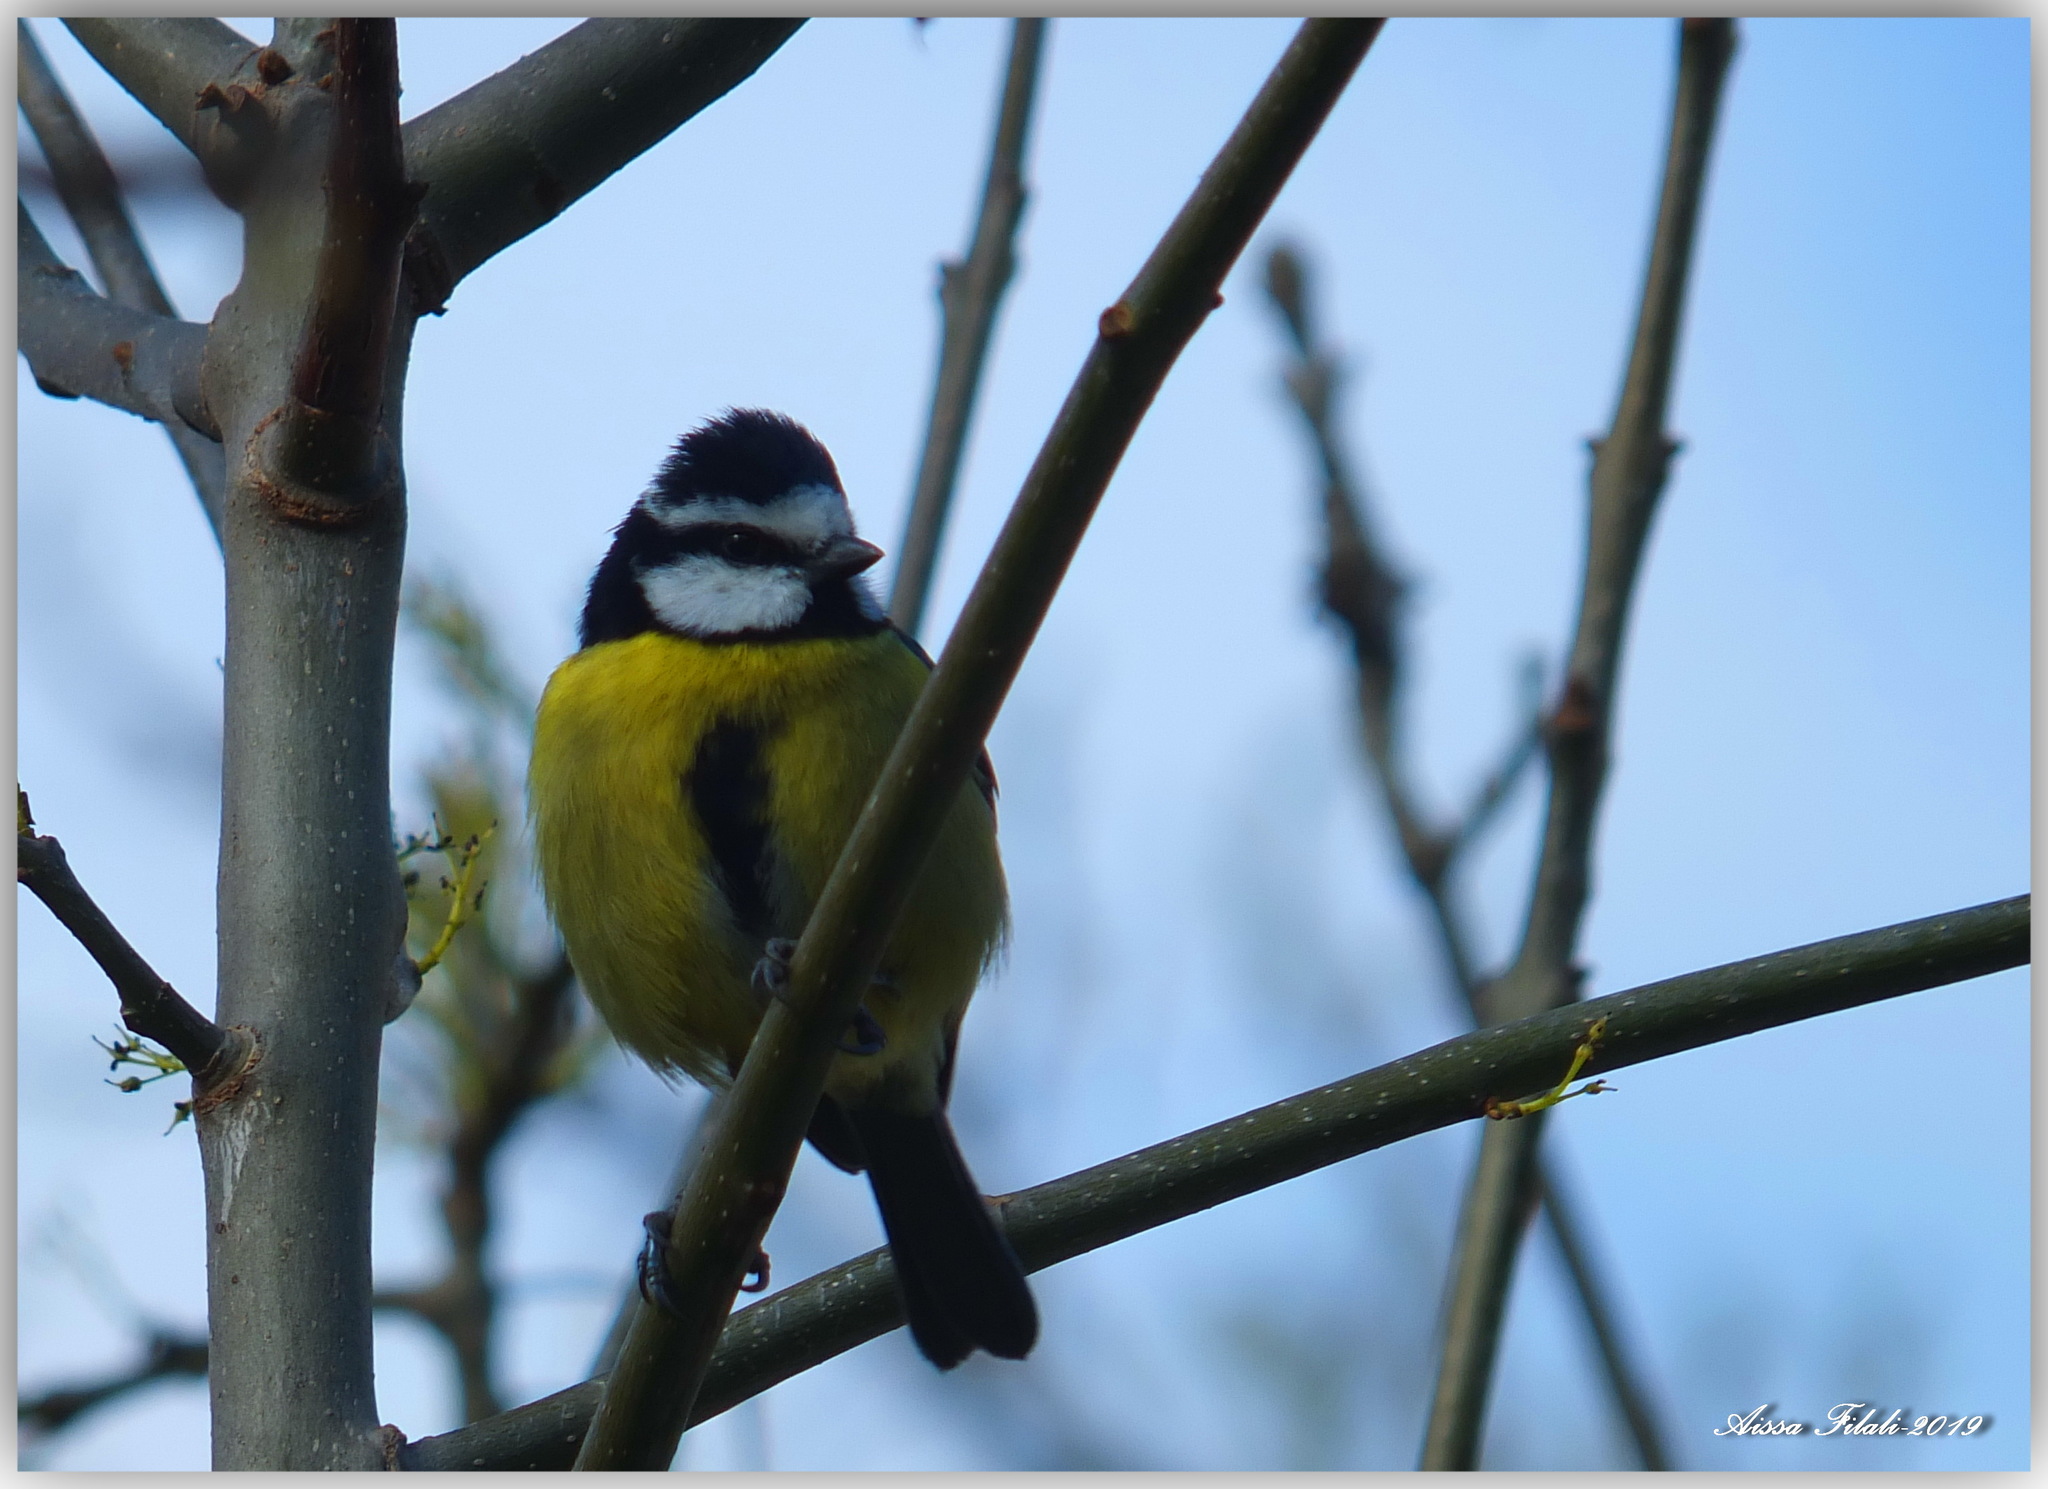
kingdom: Animalia
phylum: Chordata
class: Aves
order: Passeriformes
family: Paridae
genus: Cyanistes
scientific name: Cyanistes teneriffae
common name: African blue tit
